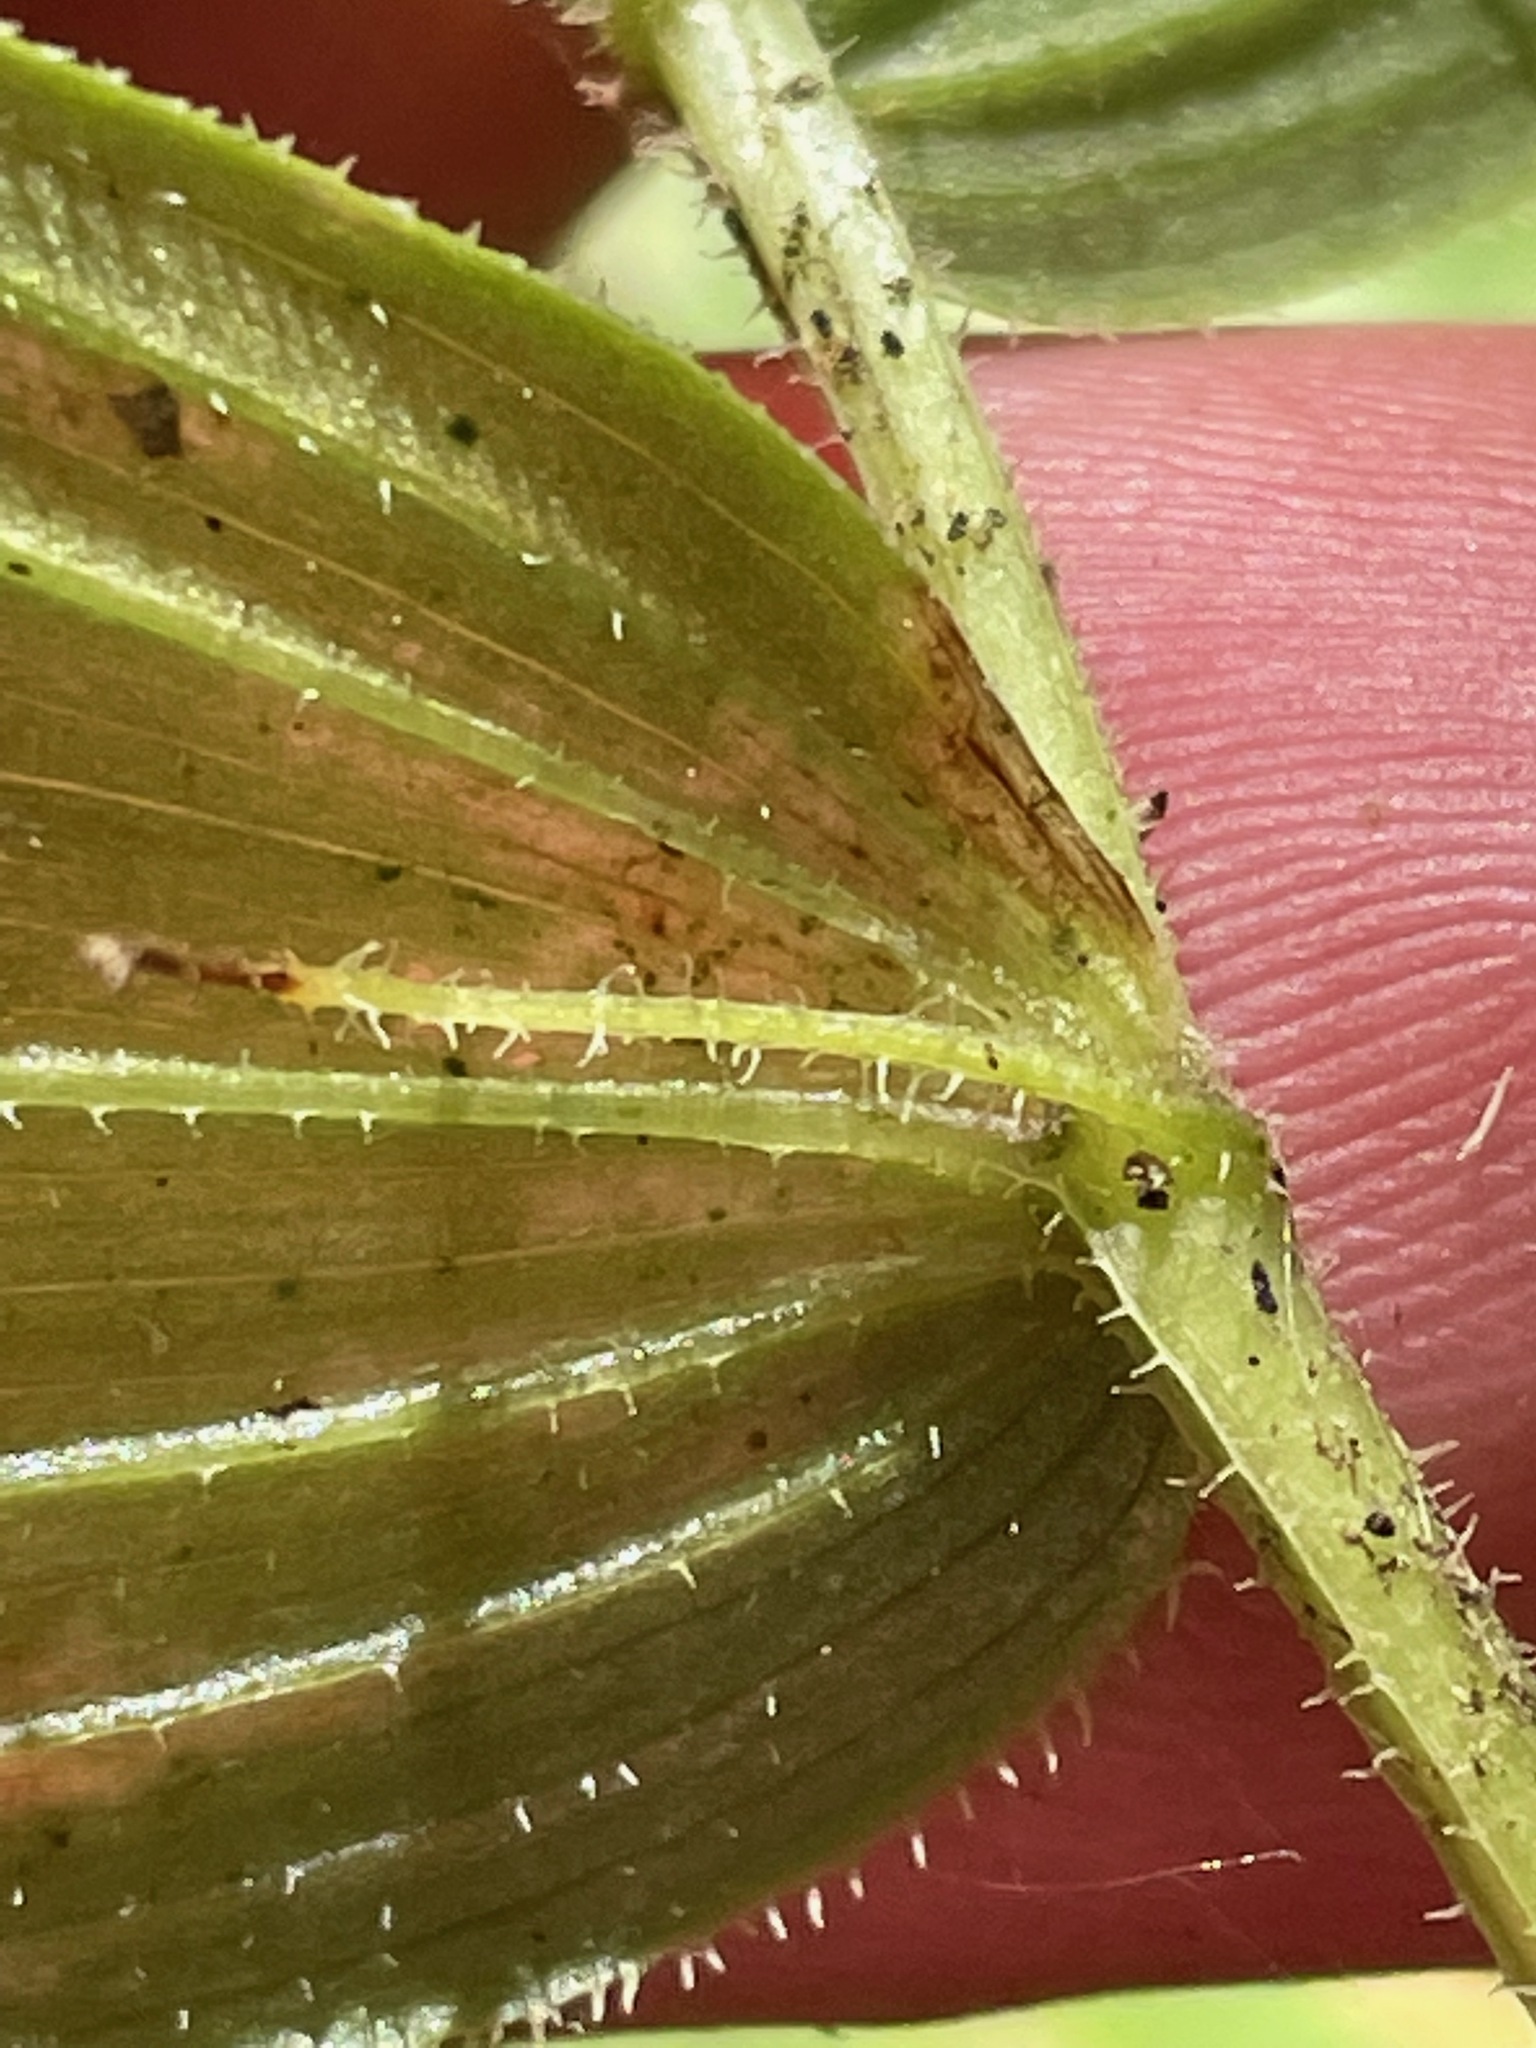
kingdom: Plantae
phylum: Tracheophyta
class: Liliopsida
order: Liliales
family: Liliaceae
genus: Streptopus
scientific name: Streptopus lanceolatus
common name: Rose mandarin
